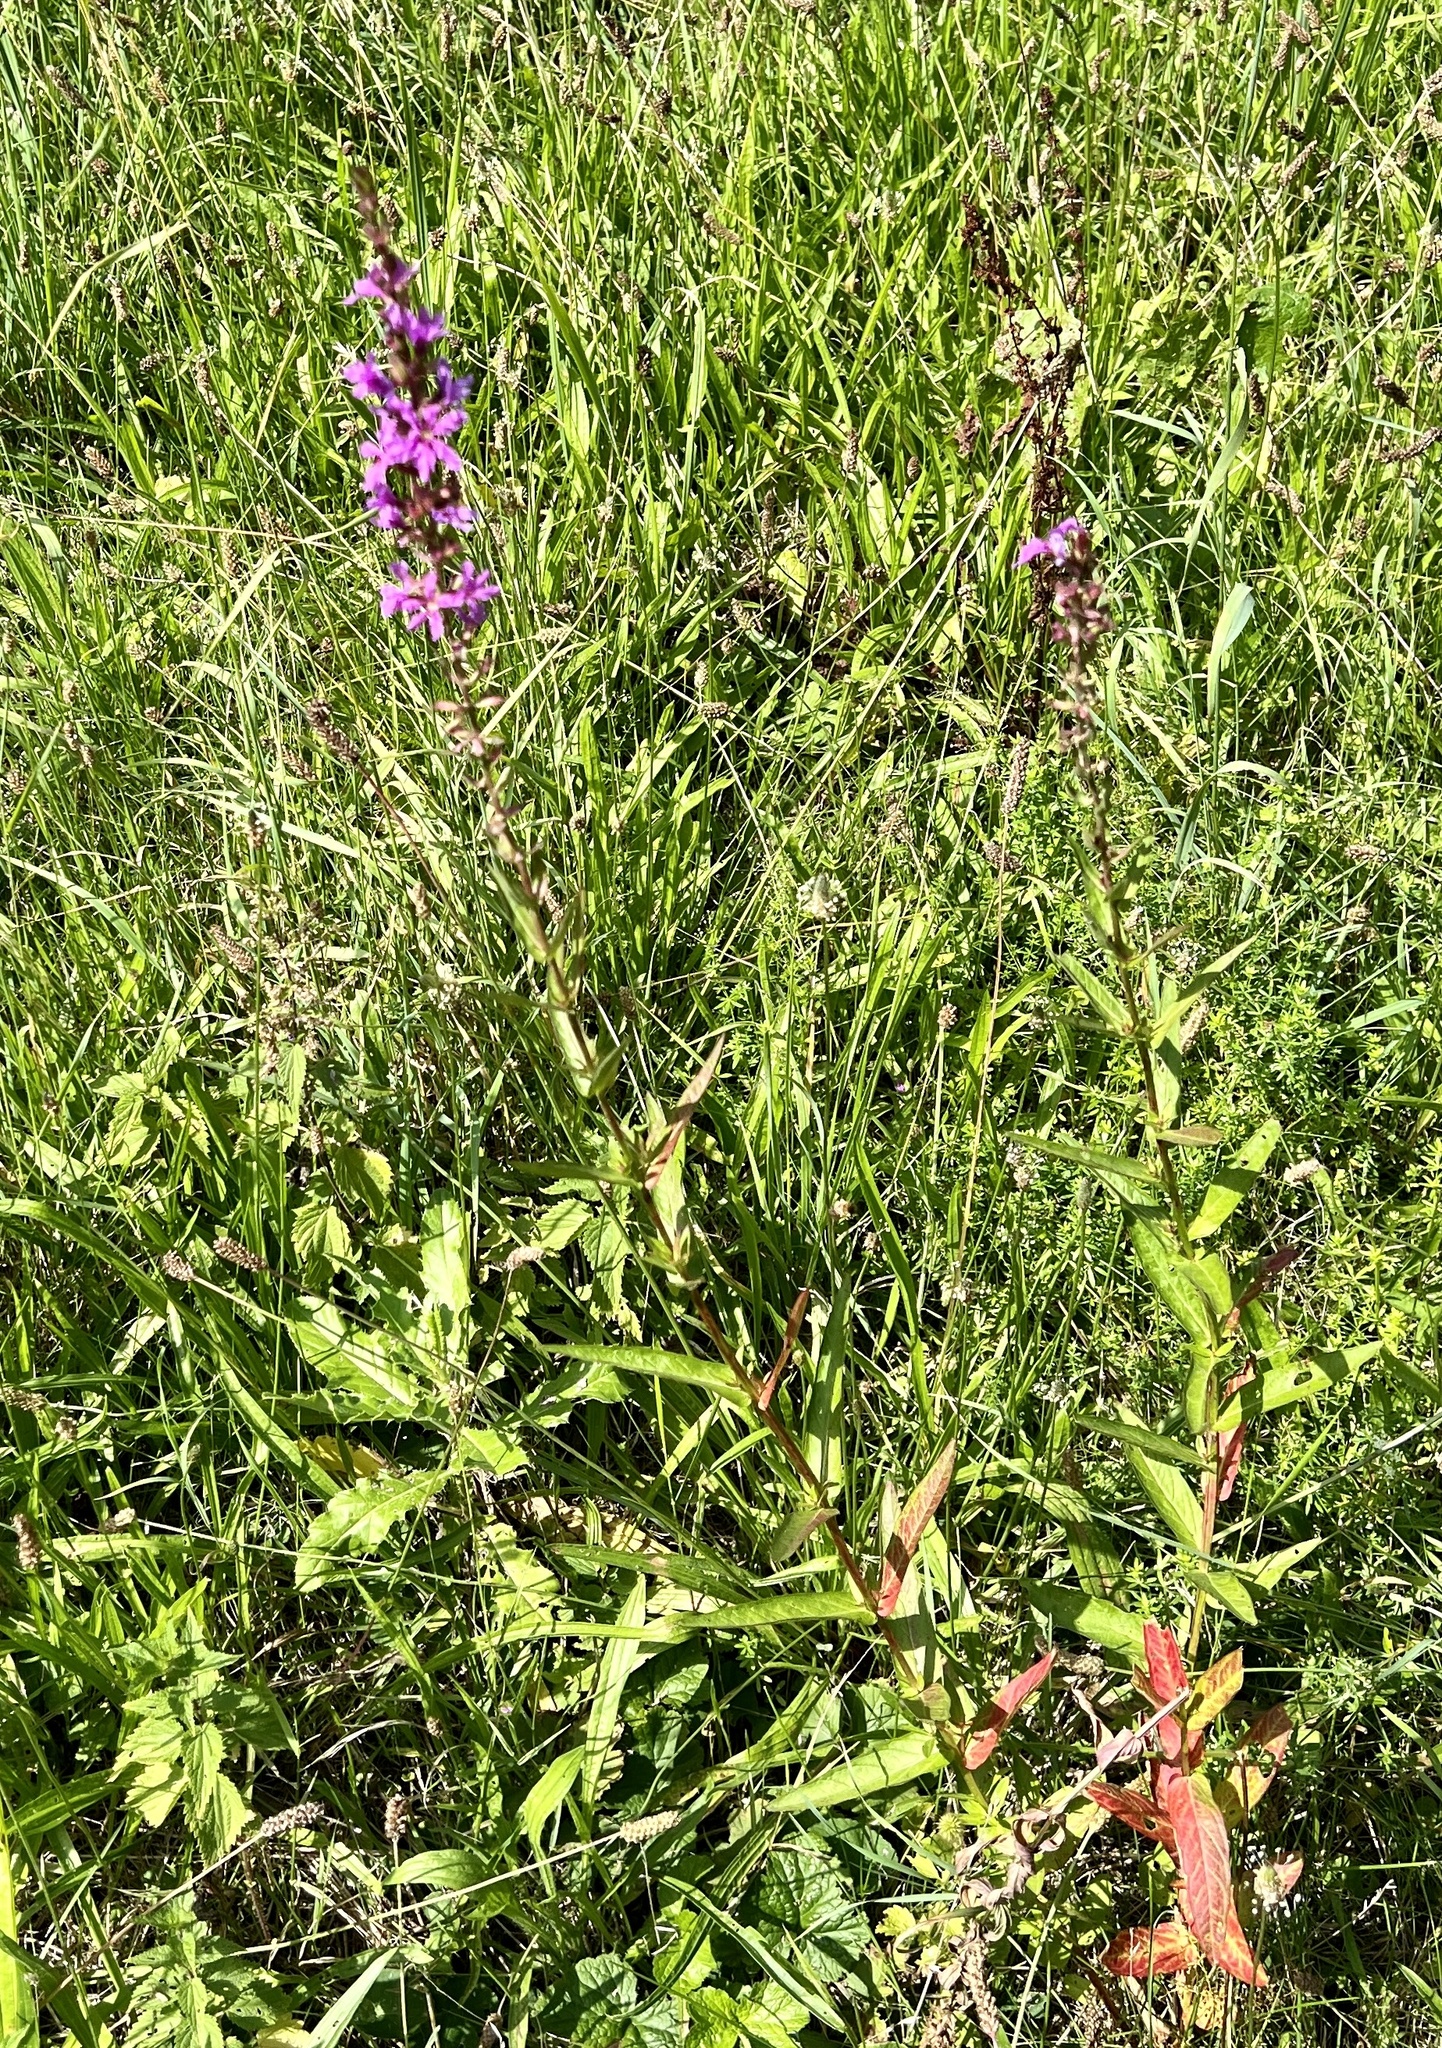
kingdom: Plantae
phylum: Tracheophyta
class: Magnoliopsida
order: Myrtales
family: Lythraceae
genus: Lythrum
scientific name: Lythrum salicaria
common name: Purple loosestrife
